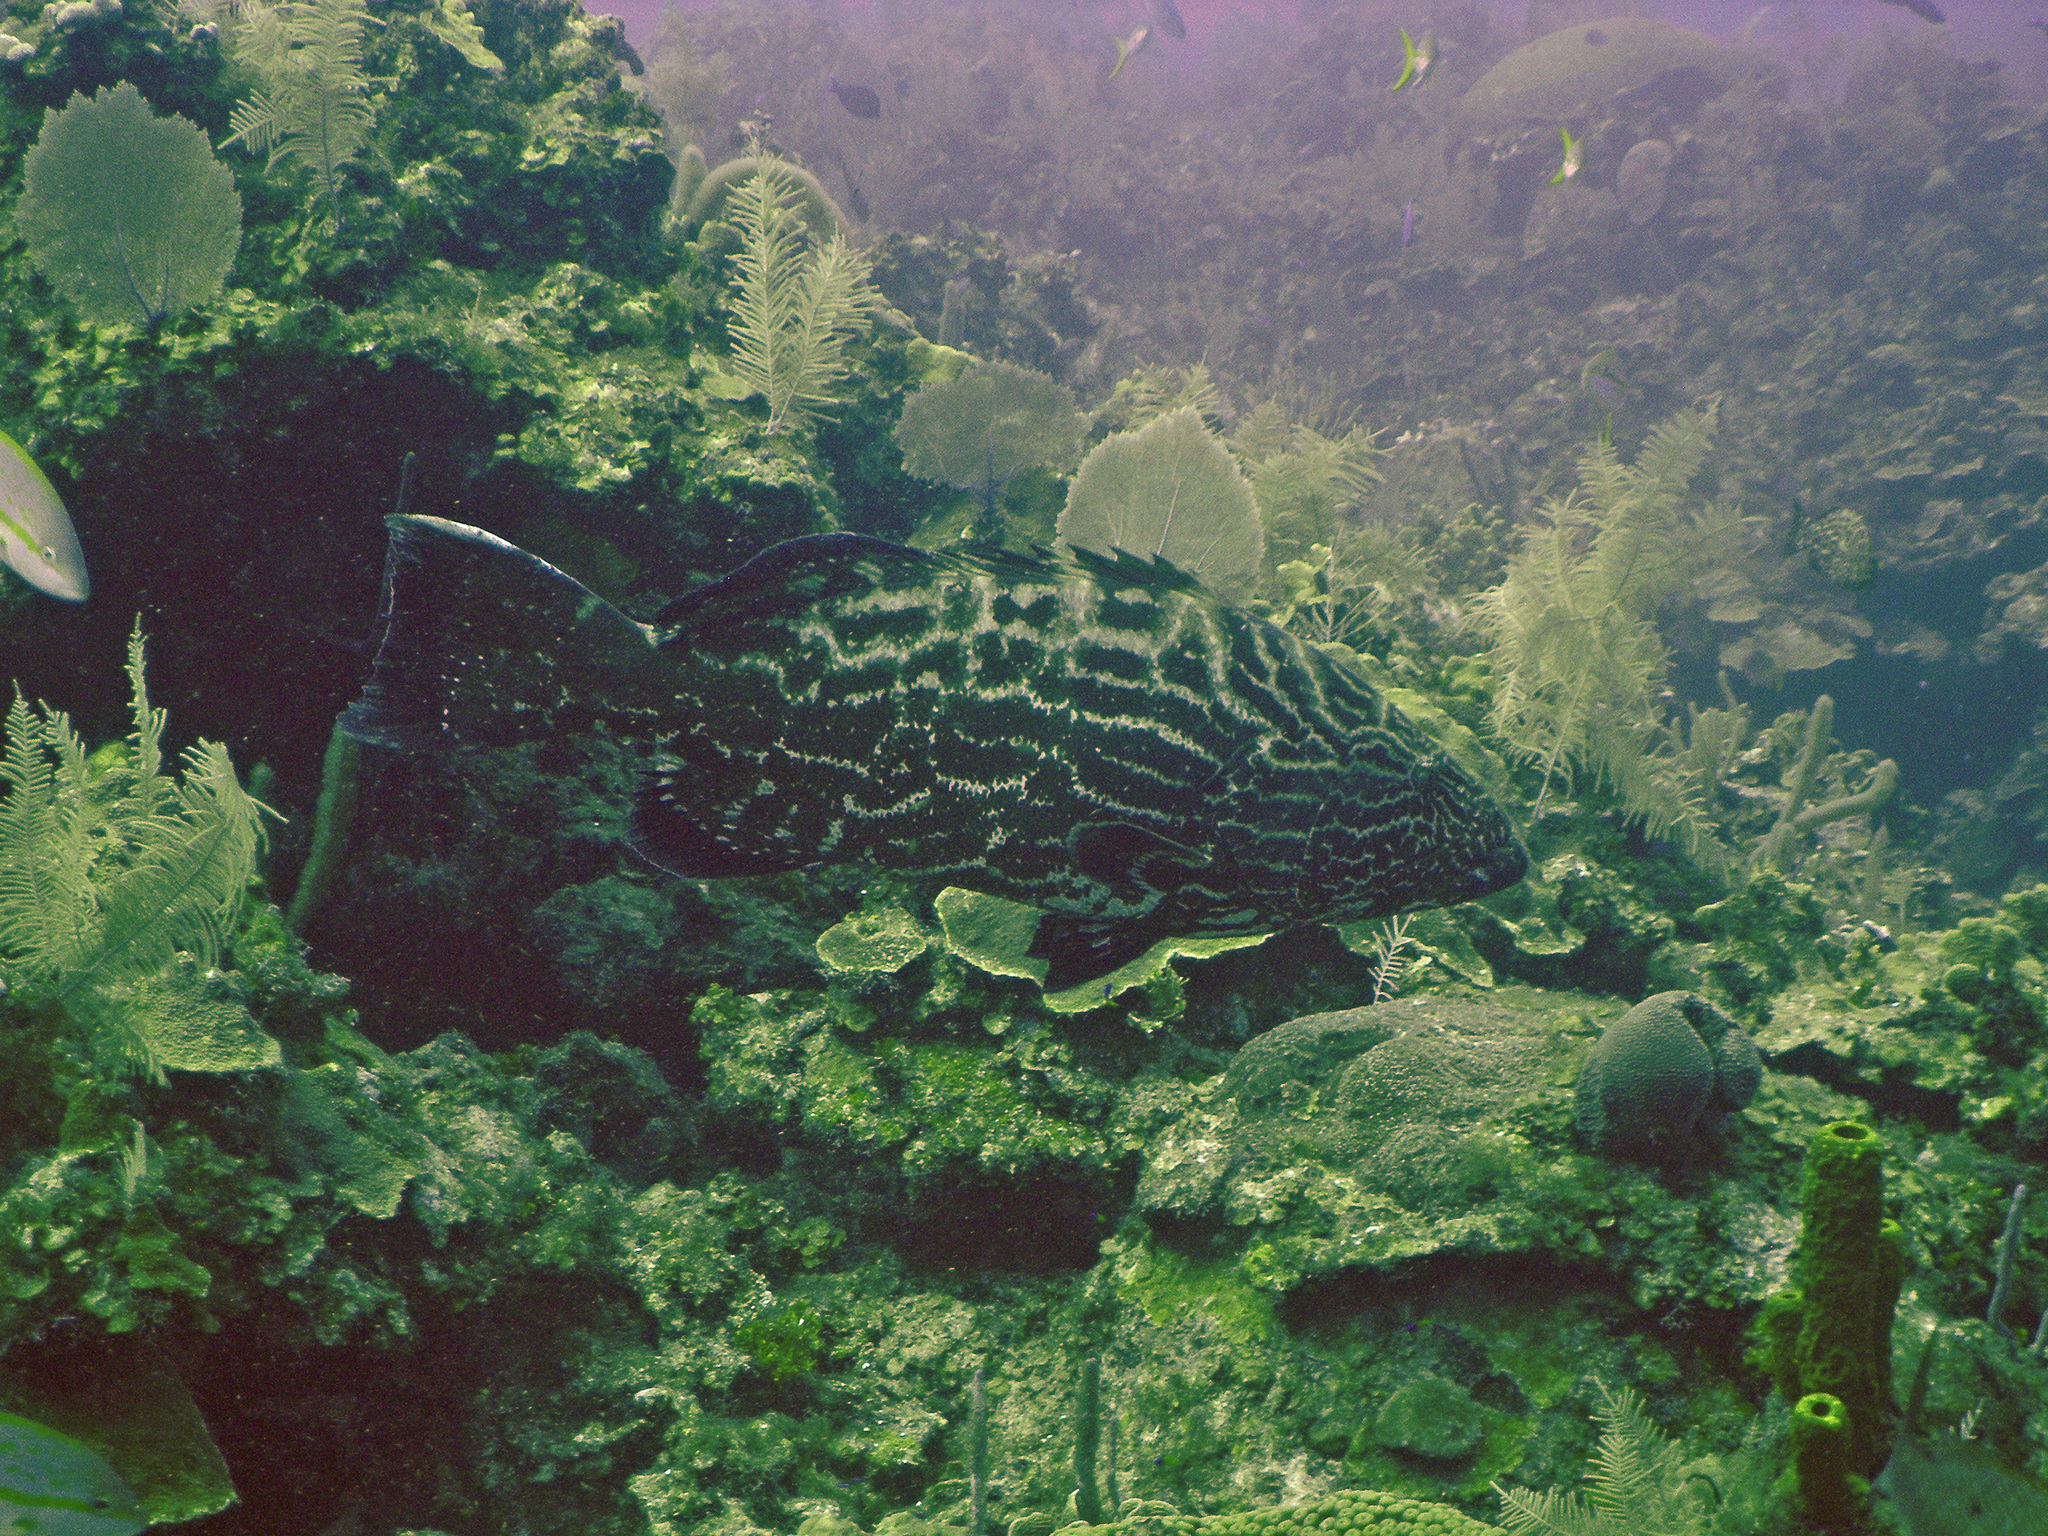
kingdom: Animalia
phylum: Chordata
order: Perciformes
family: Serranidae
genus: Mycteroperca
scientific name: Mycteroperca bonaci
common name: Black grouper
